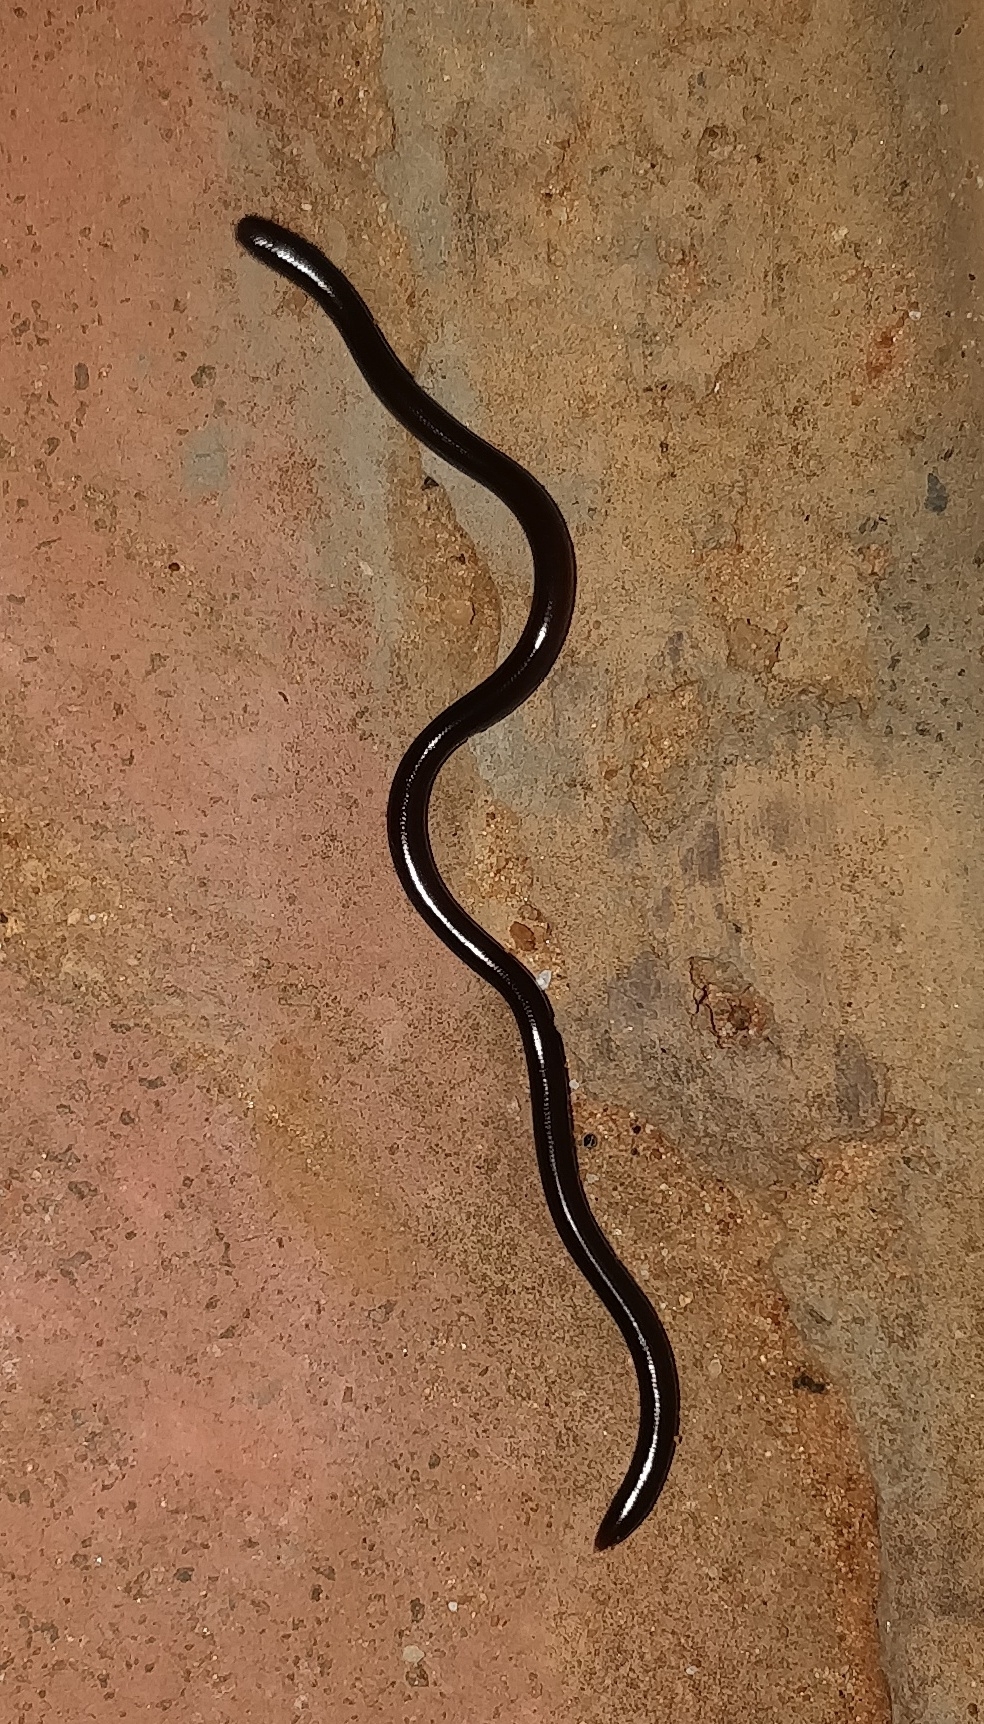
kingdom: Animalia
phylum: Chordata
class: Squamata
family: Typhlopidae
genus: Indotyphlops
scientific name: Indotyphlops braminus
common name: Brahminy blindsnake
